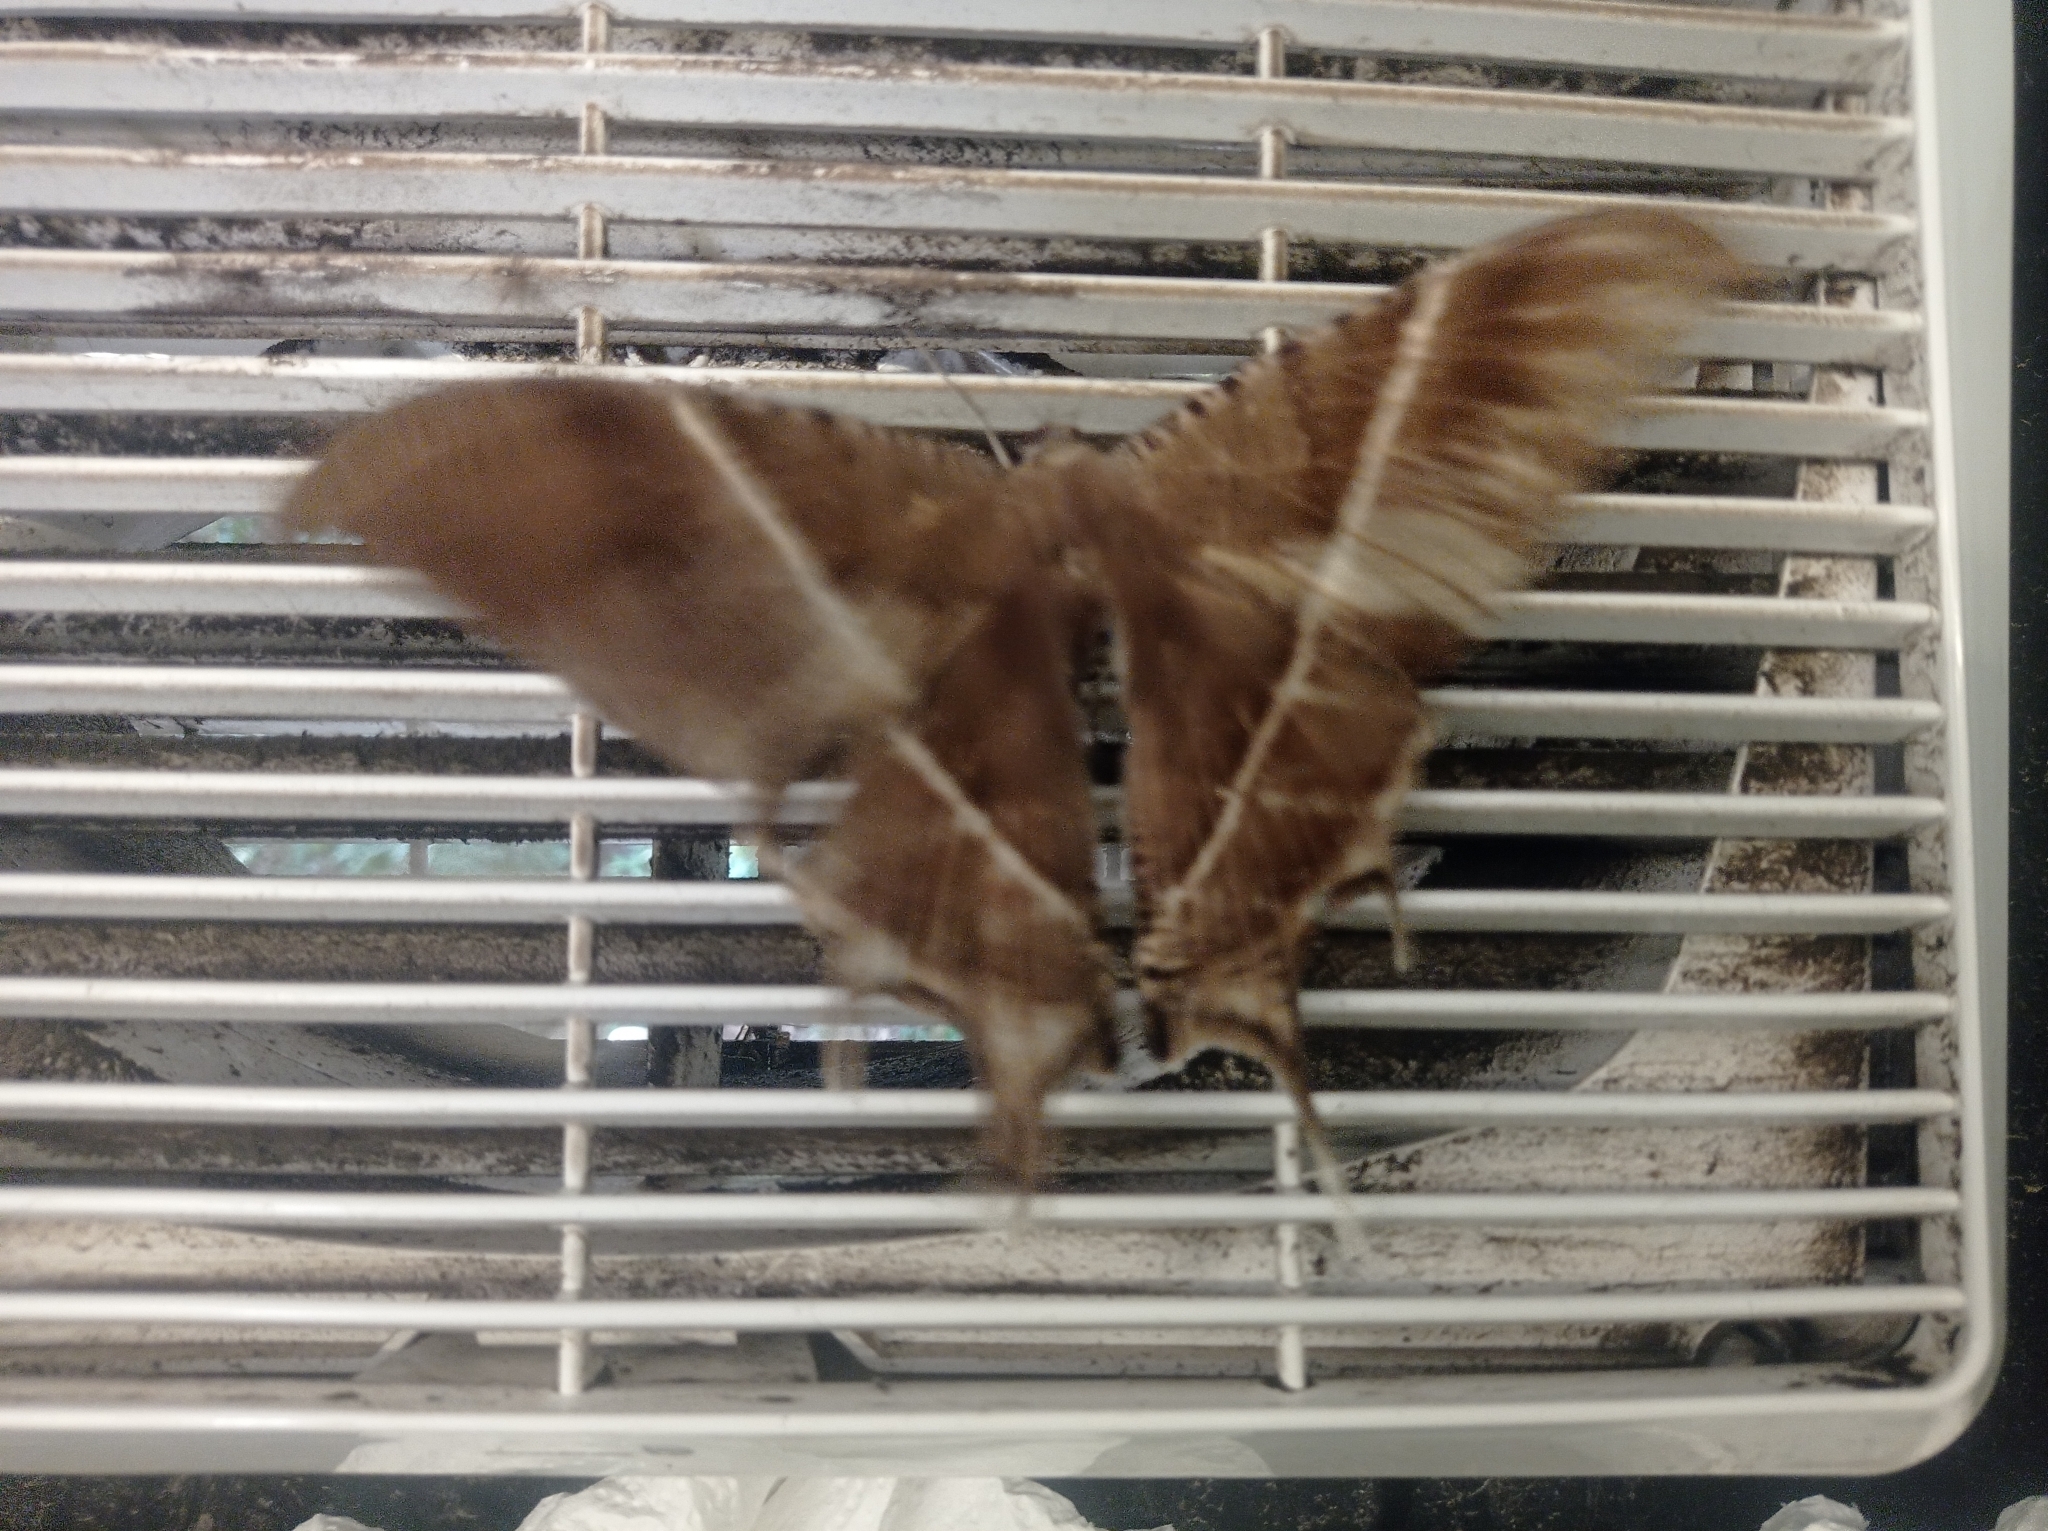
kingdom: Animalia
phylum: Arthropoda
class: Insecta
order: Lepidoptera
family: Uraniidae
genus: Lyssa
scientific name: Lyssa zampa
